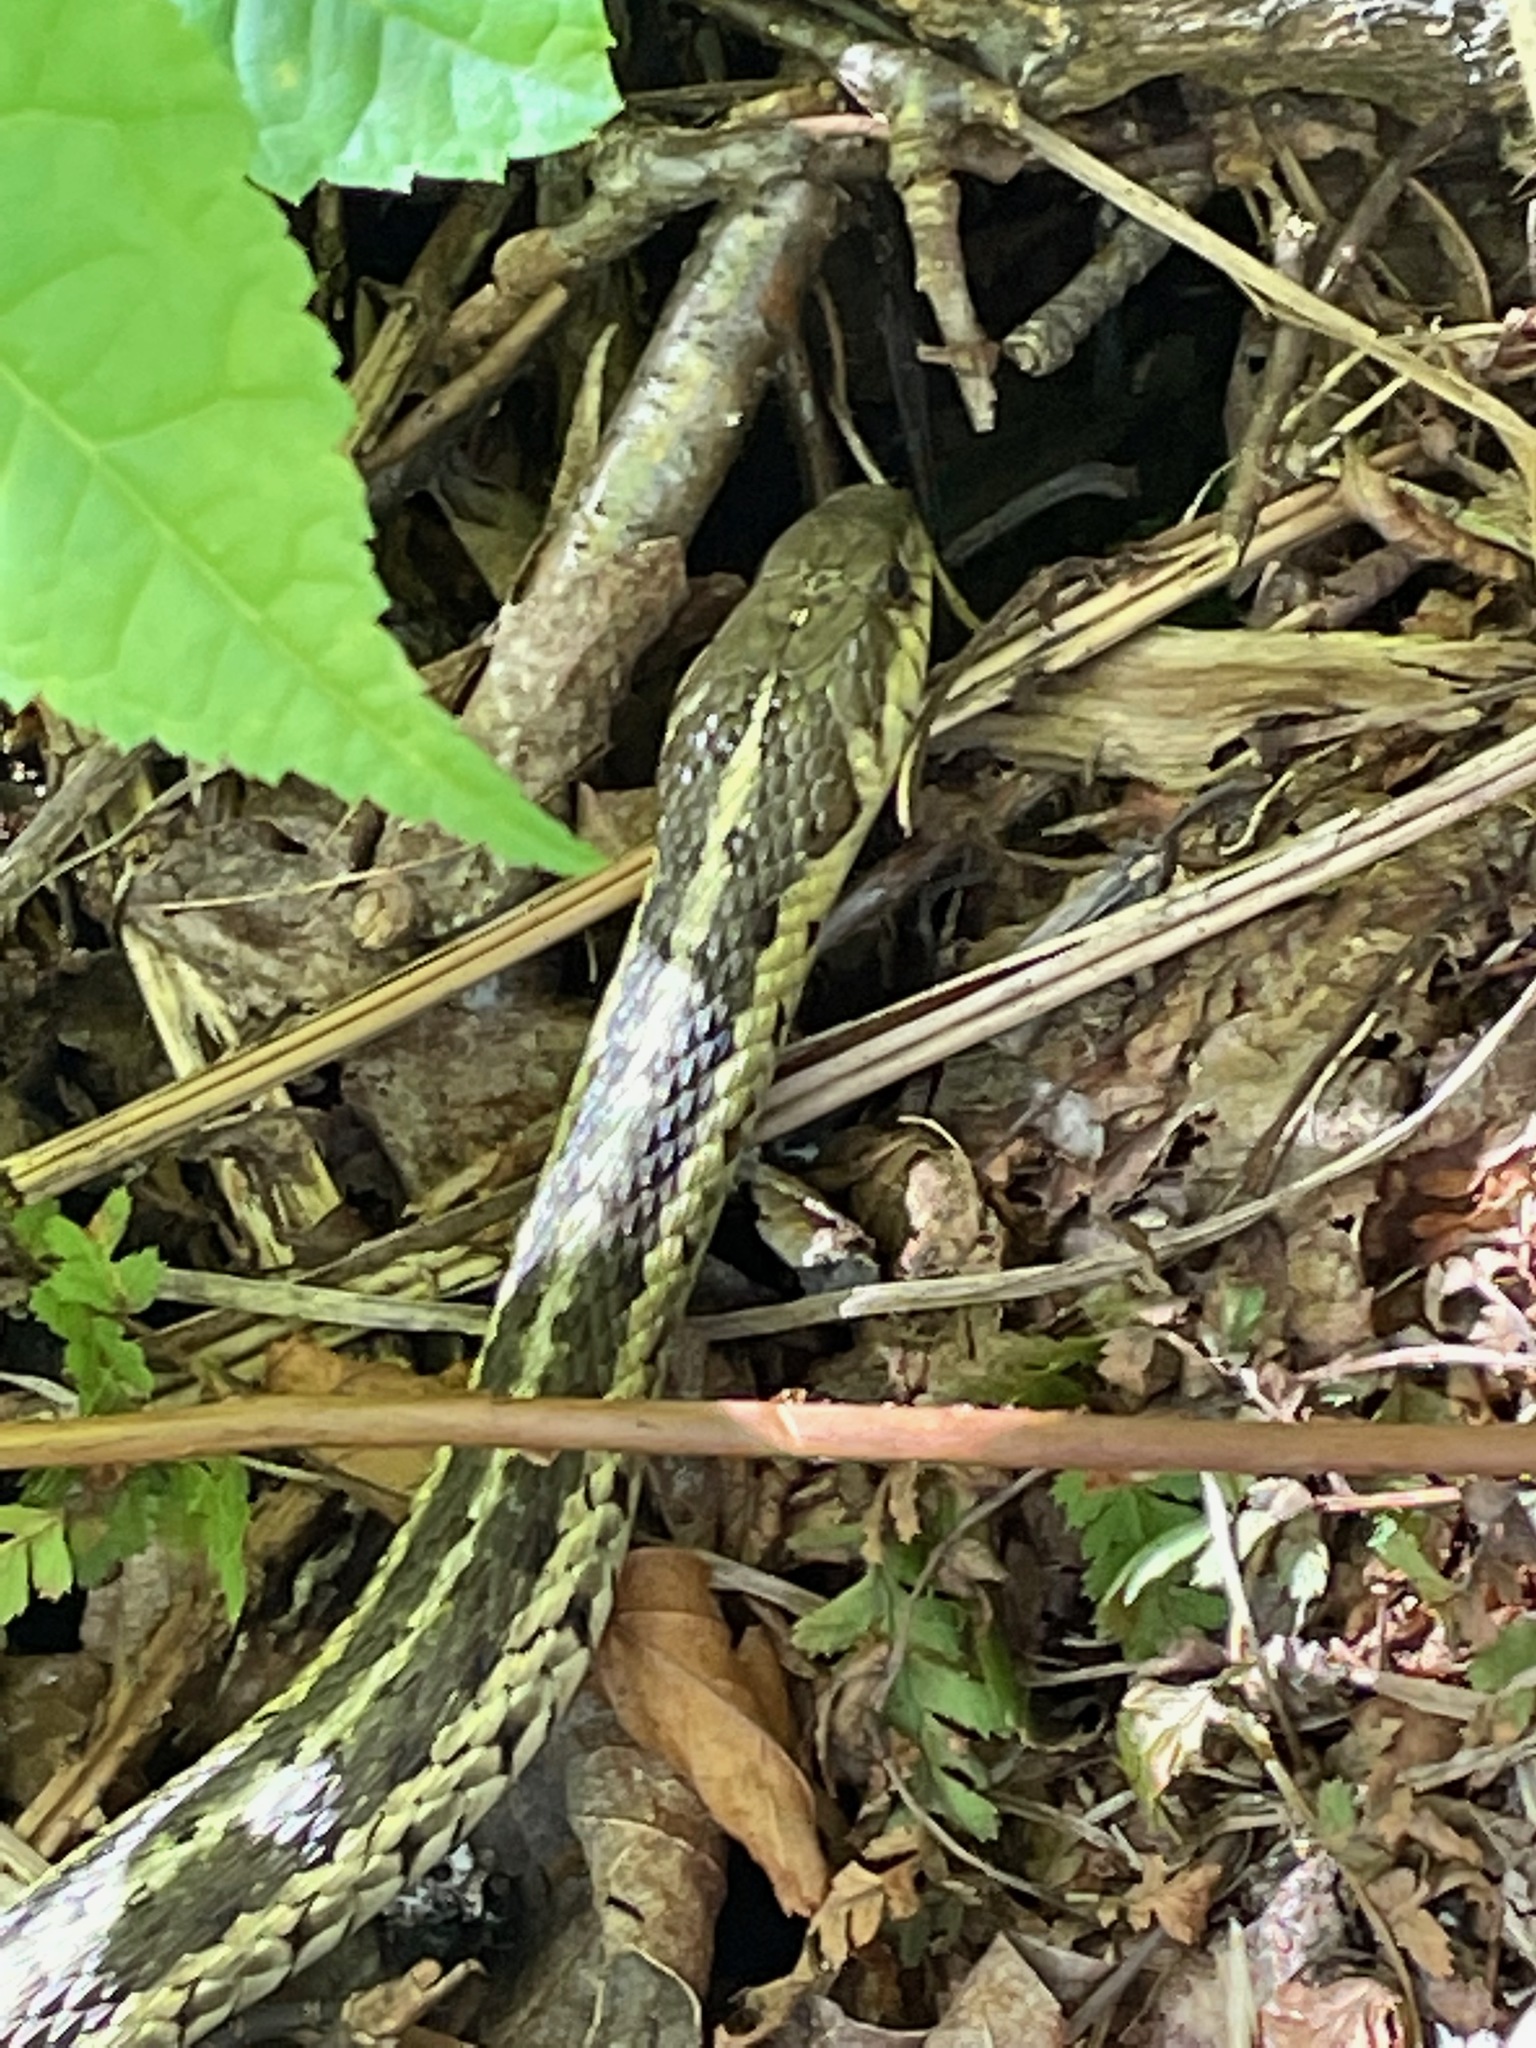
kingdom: Animalia
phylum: Chordata
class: Squamata
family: Colubridae
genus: Thamnophis
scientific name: Thamnophis sirtalis
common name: Common garter snake
